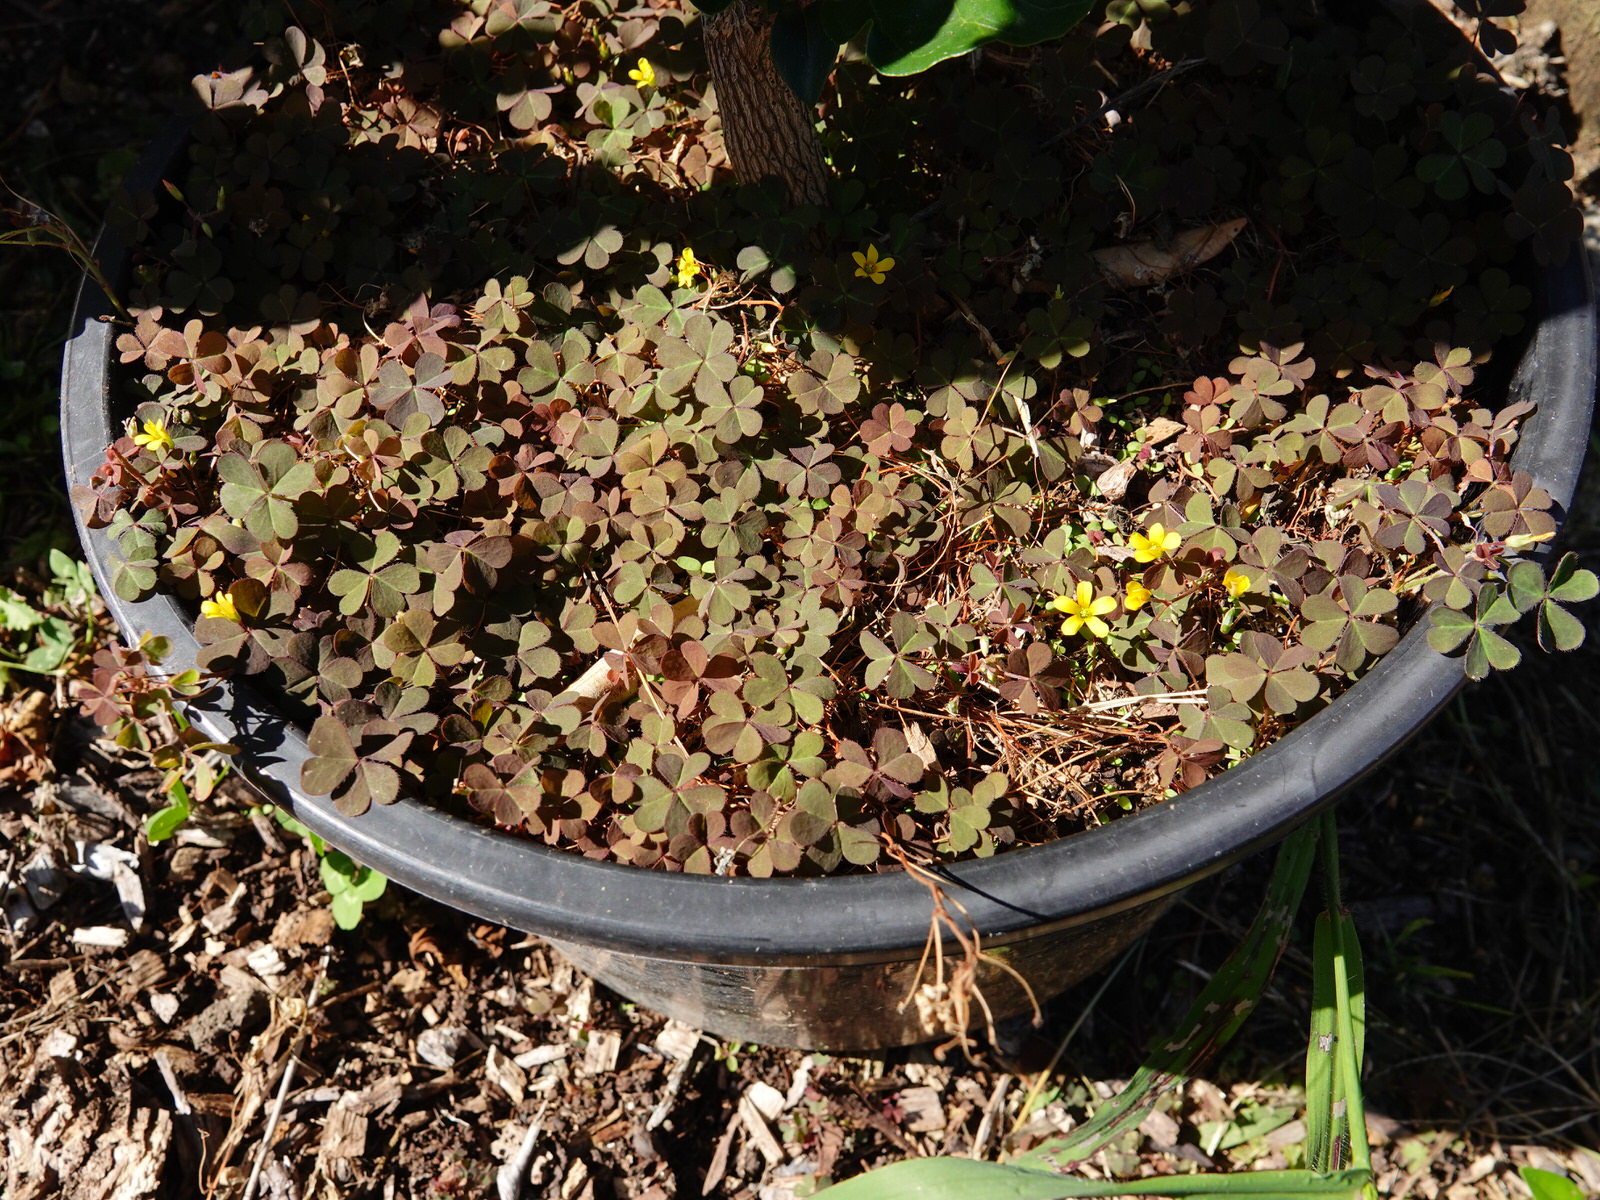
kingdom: Plantae
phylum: Tracheophyta
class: Magnoliopsida
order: Oxalidales
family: Oxalidaceae
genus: Oxalis
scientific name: Oxalis corniculata
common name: Procumbent yellow-sorrel
